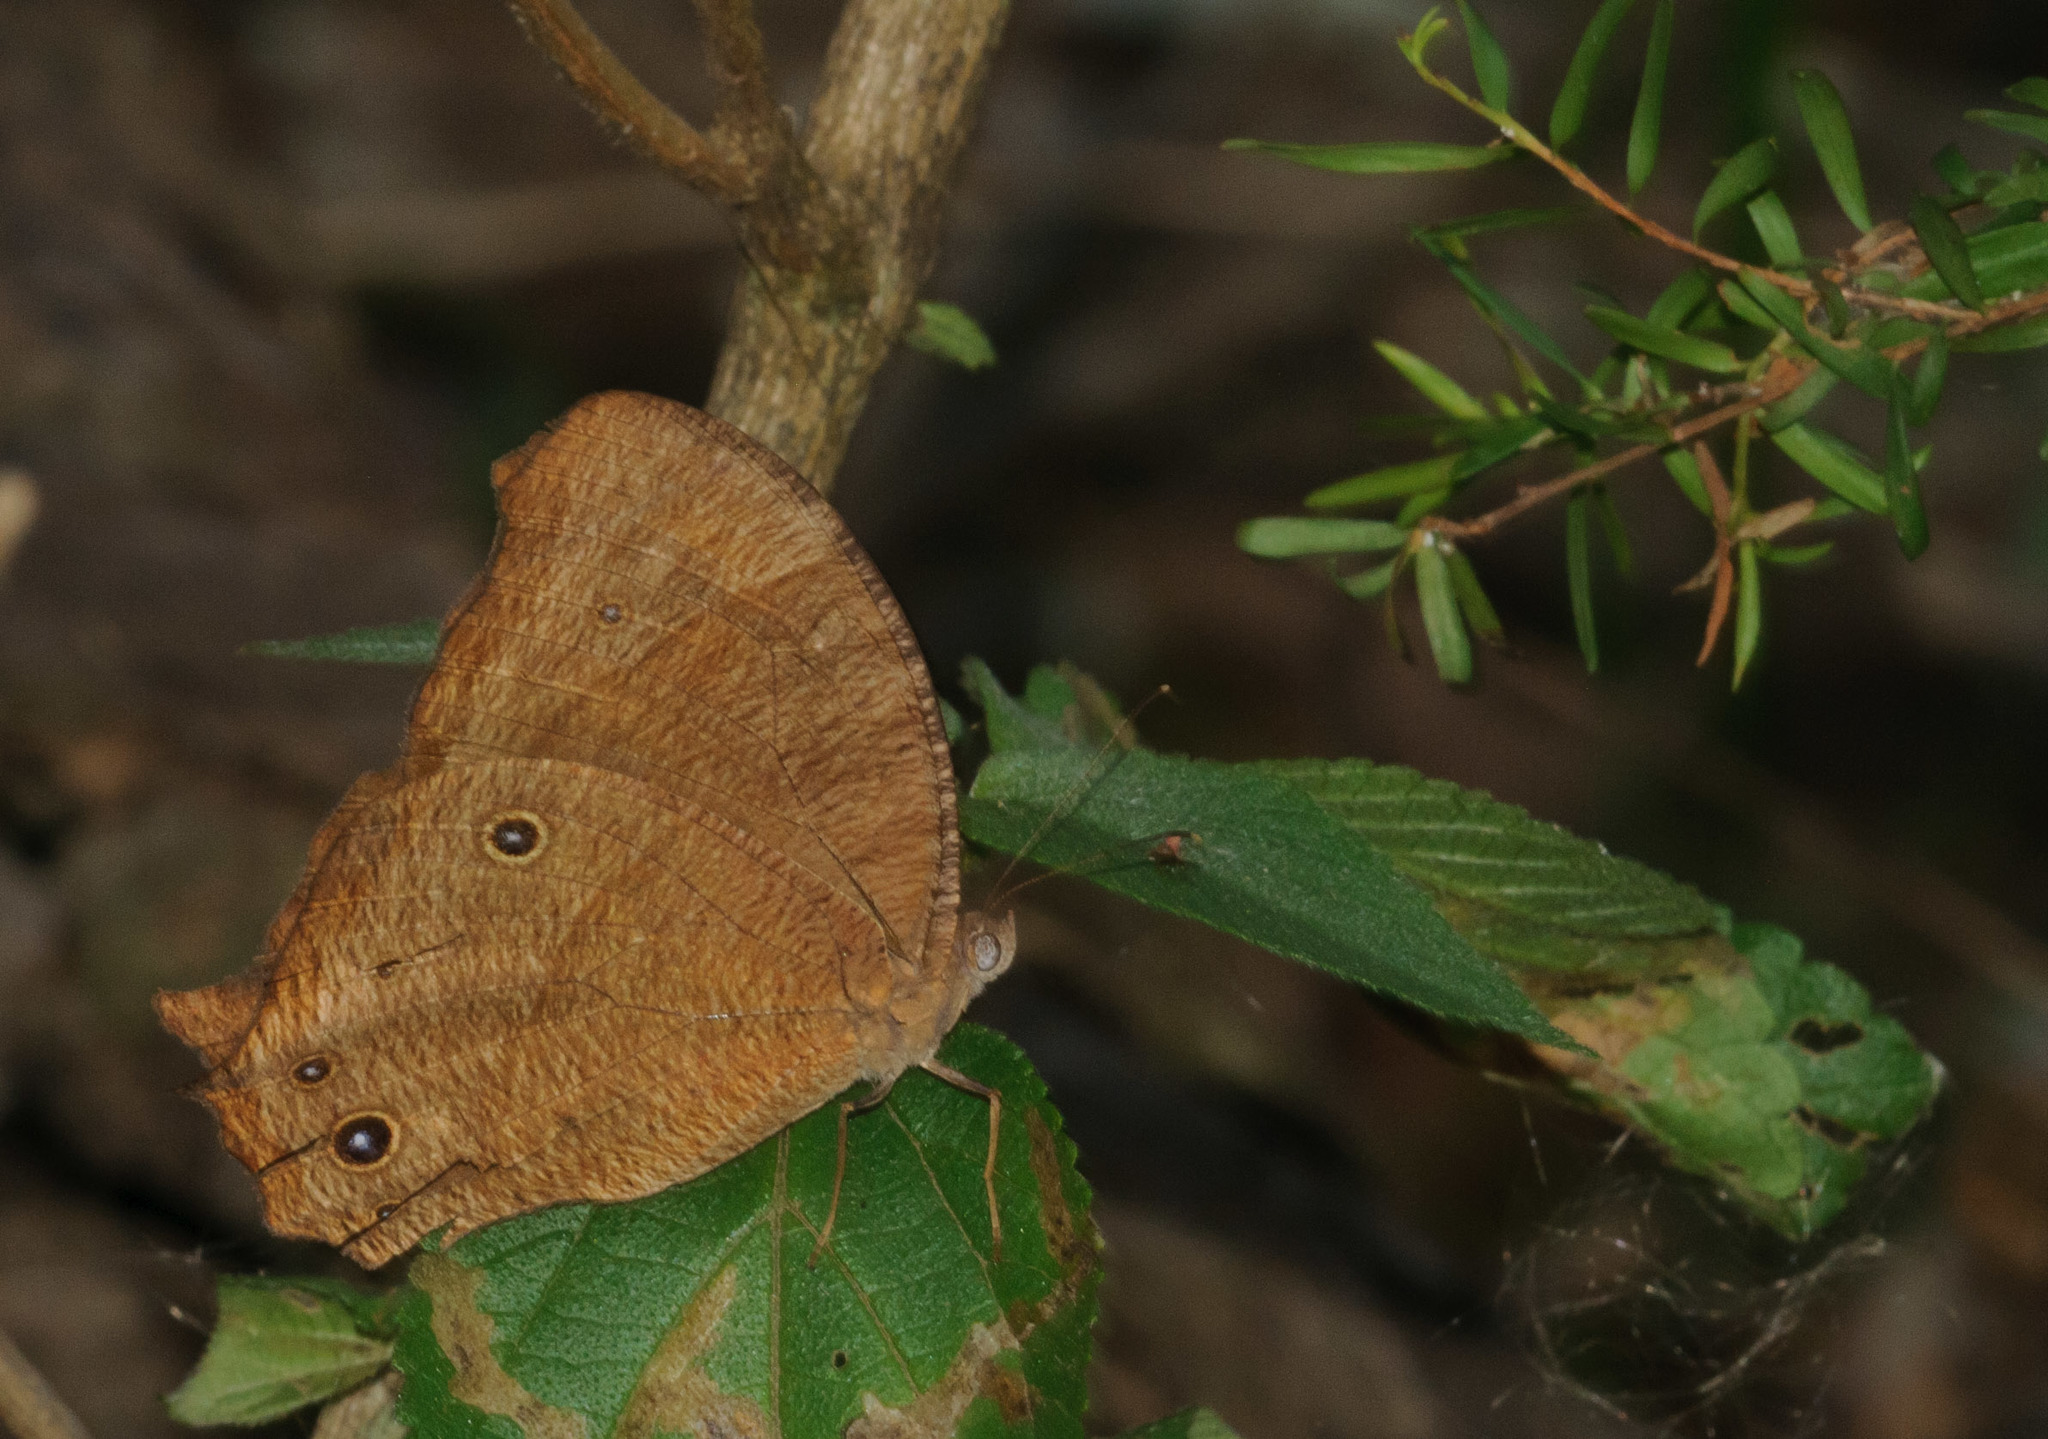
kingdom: Animalia
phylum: Arthropoda
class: Insecta
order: Lepidoptera
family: Nymphalidae
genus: Melanitis
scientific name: Melanitis leda
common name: Twilight brown
